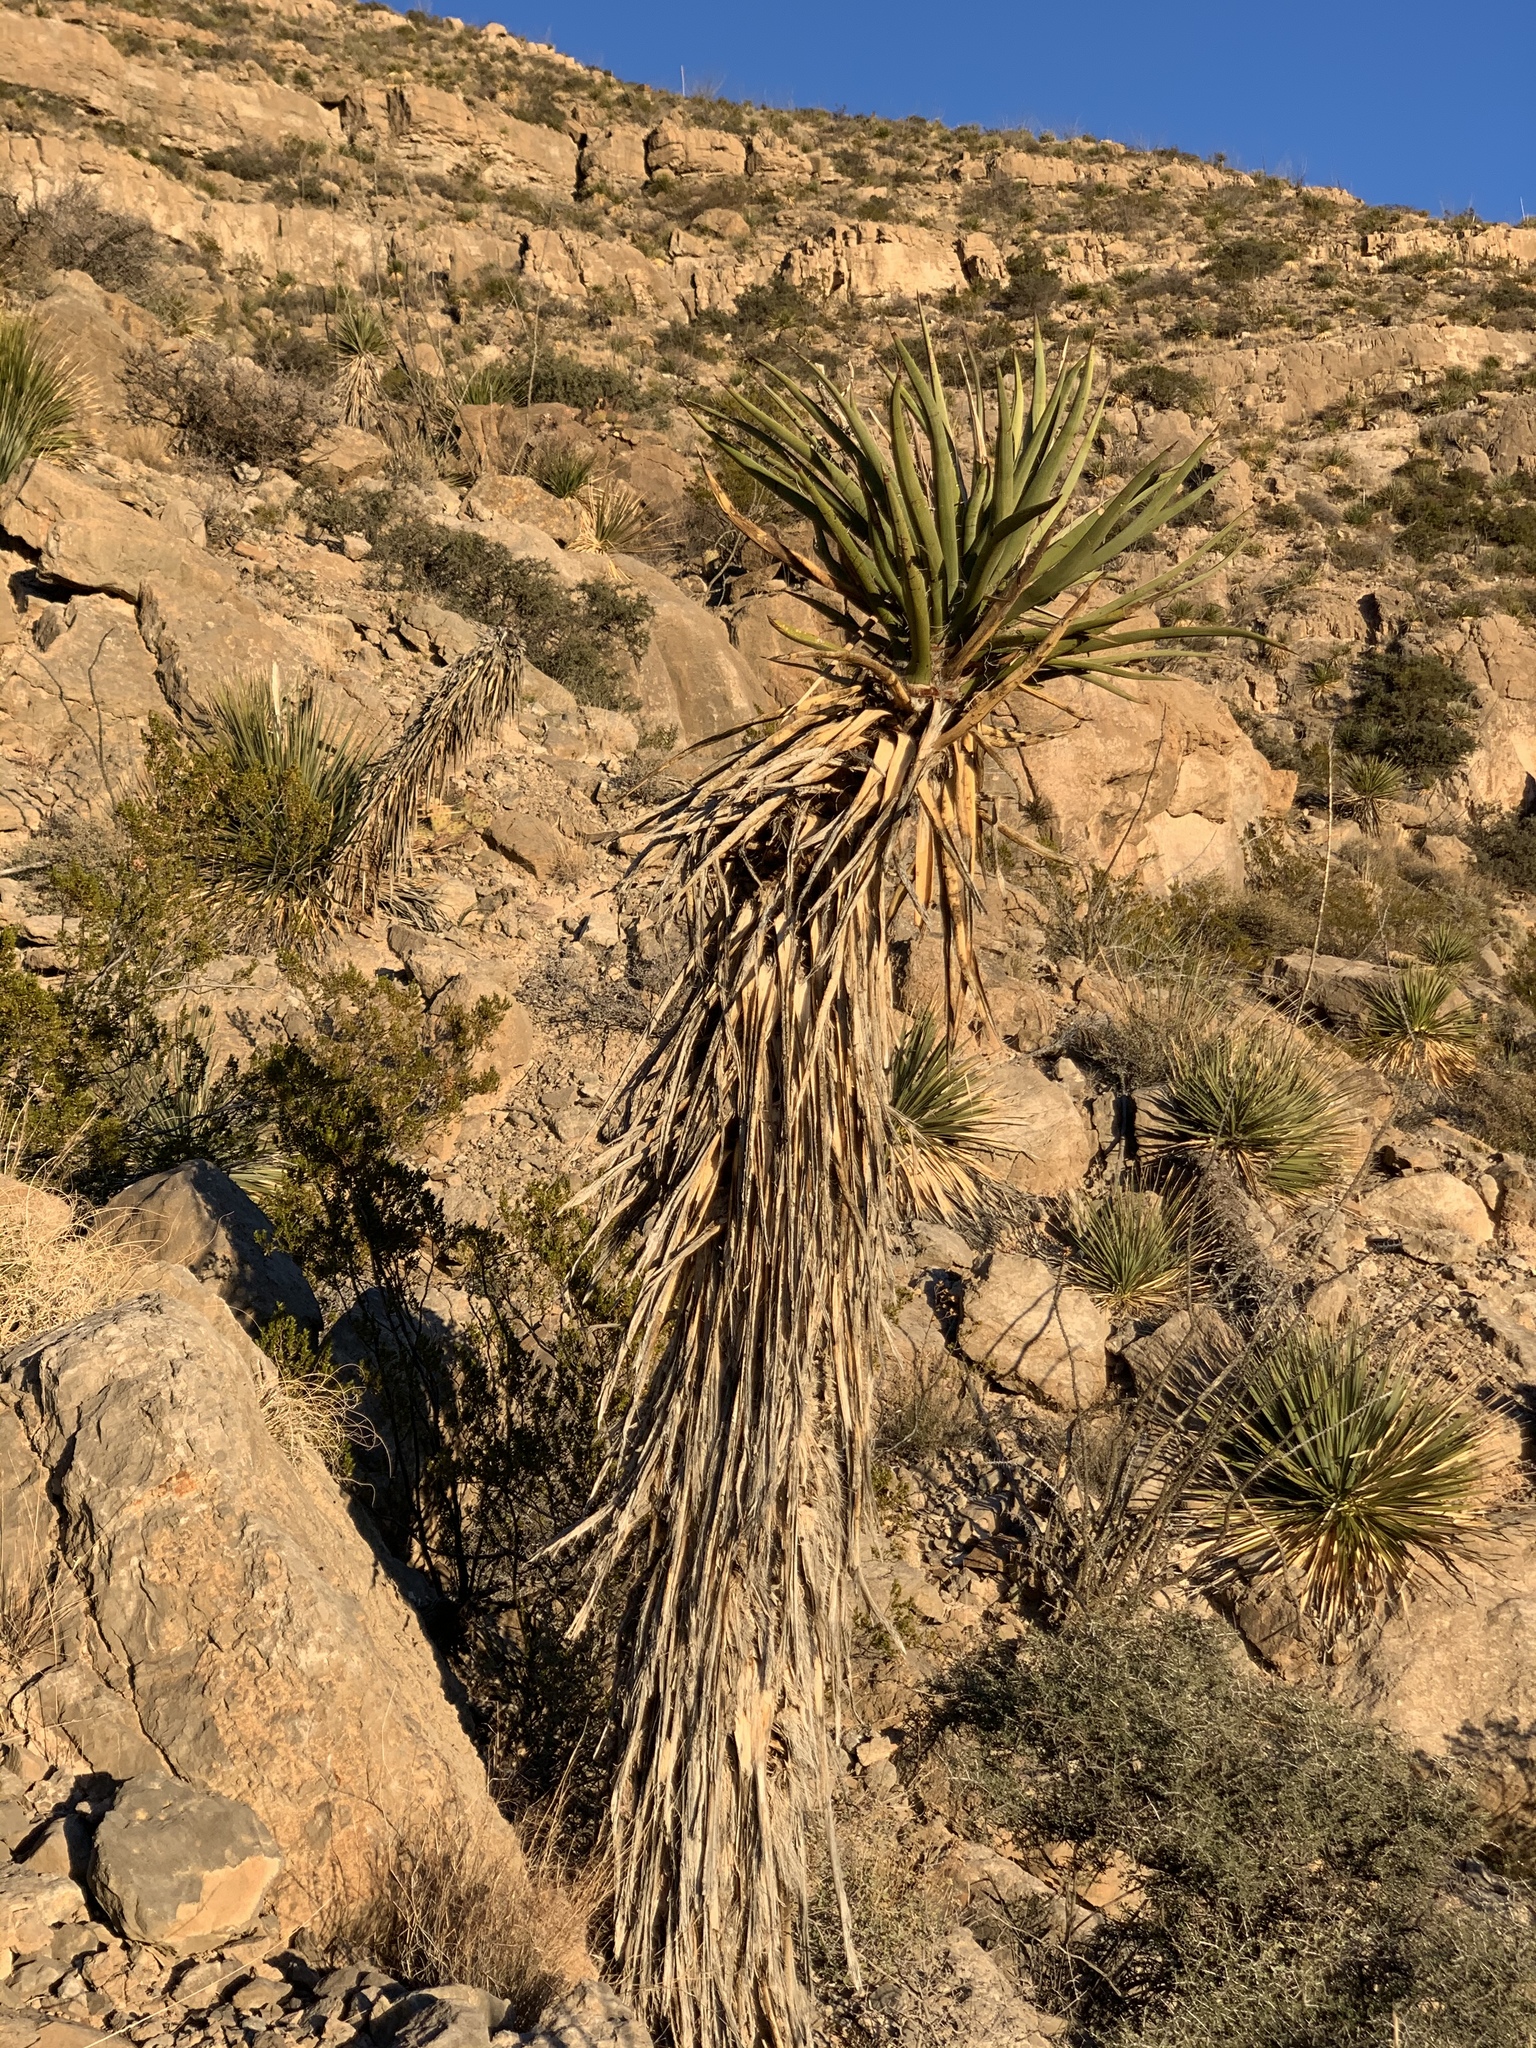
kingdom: Plantae
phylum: Tracheophyta
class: Liliopsida
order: Asparagales
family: Asparagaceae
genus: Yucca
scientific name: Yucca treculiana
